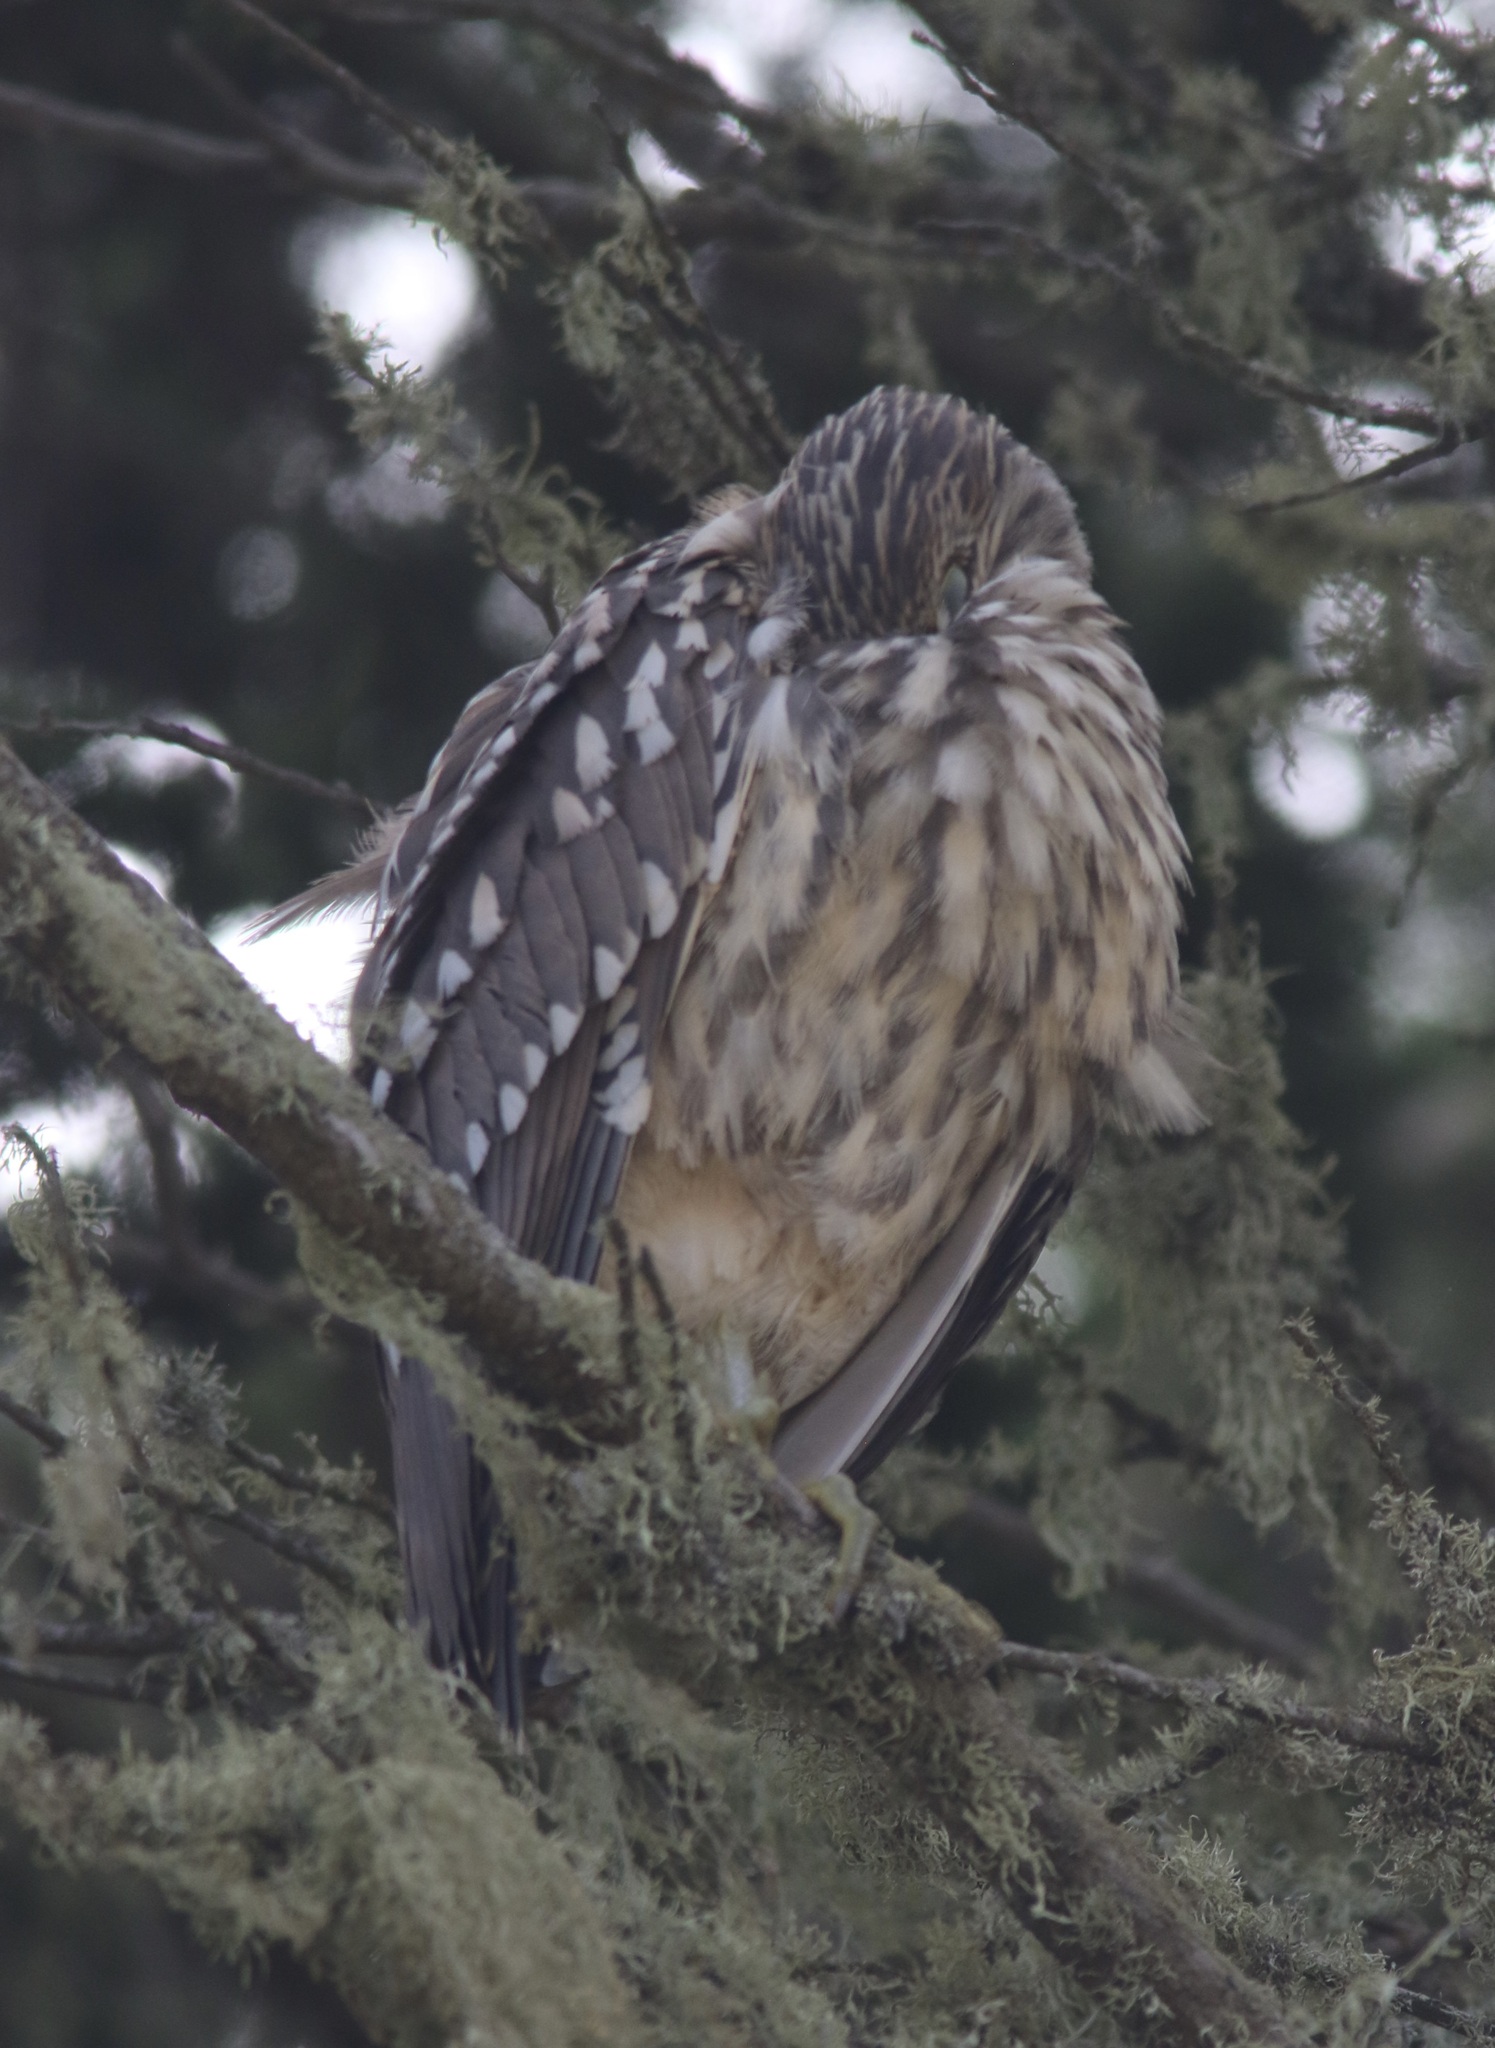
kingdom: Animalia
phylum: Chordata
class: Aves
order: Pelecaniformes
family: Ardeidae
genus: Nycticorax
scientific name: Nycticorax nycticorax
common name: Black-crowned night heron
